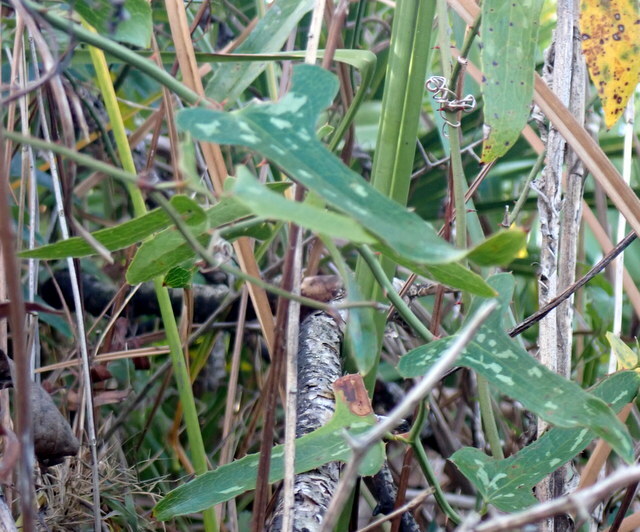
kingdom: Plantae
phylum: Tracheophyta
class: Liliopsida
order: Liliales
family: Smilacaceae
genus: Smilax
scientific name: Smilax bona-nox
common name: Catbrier
